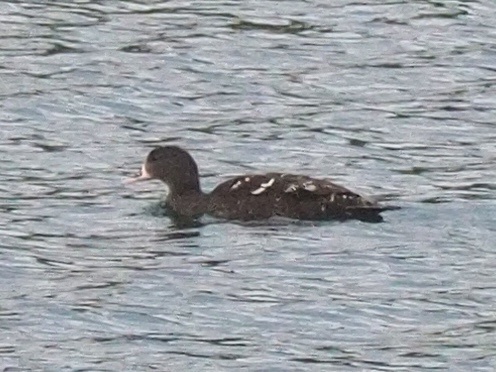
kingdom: Animalia
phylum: Chordata
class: Aves
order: Anseriformes
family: Anatidae
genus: Anas
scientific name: Anas sparsa
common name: African black duck
